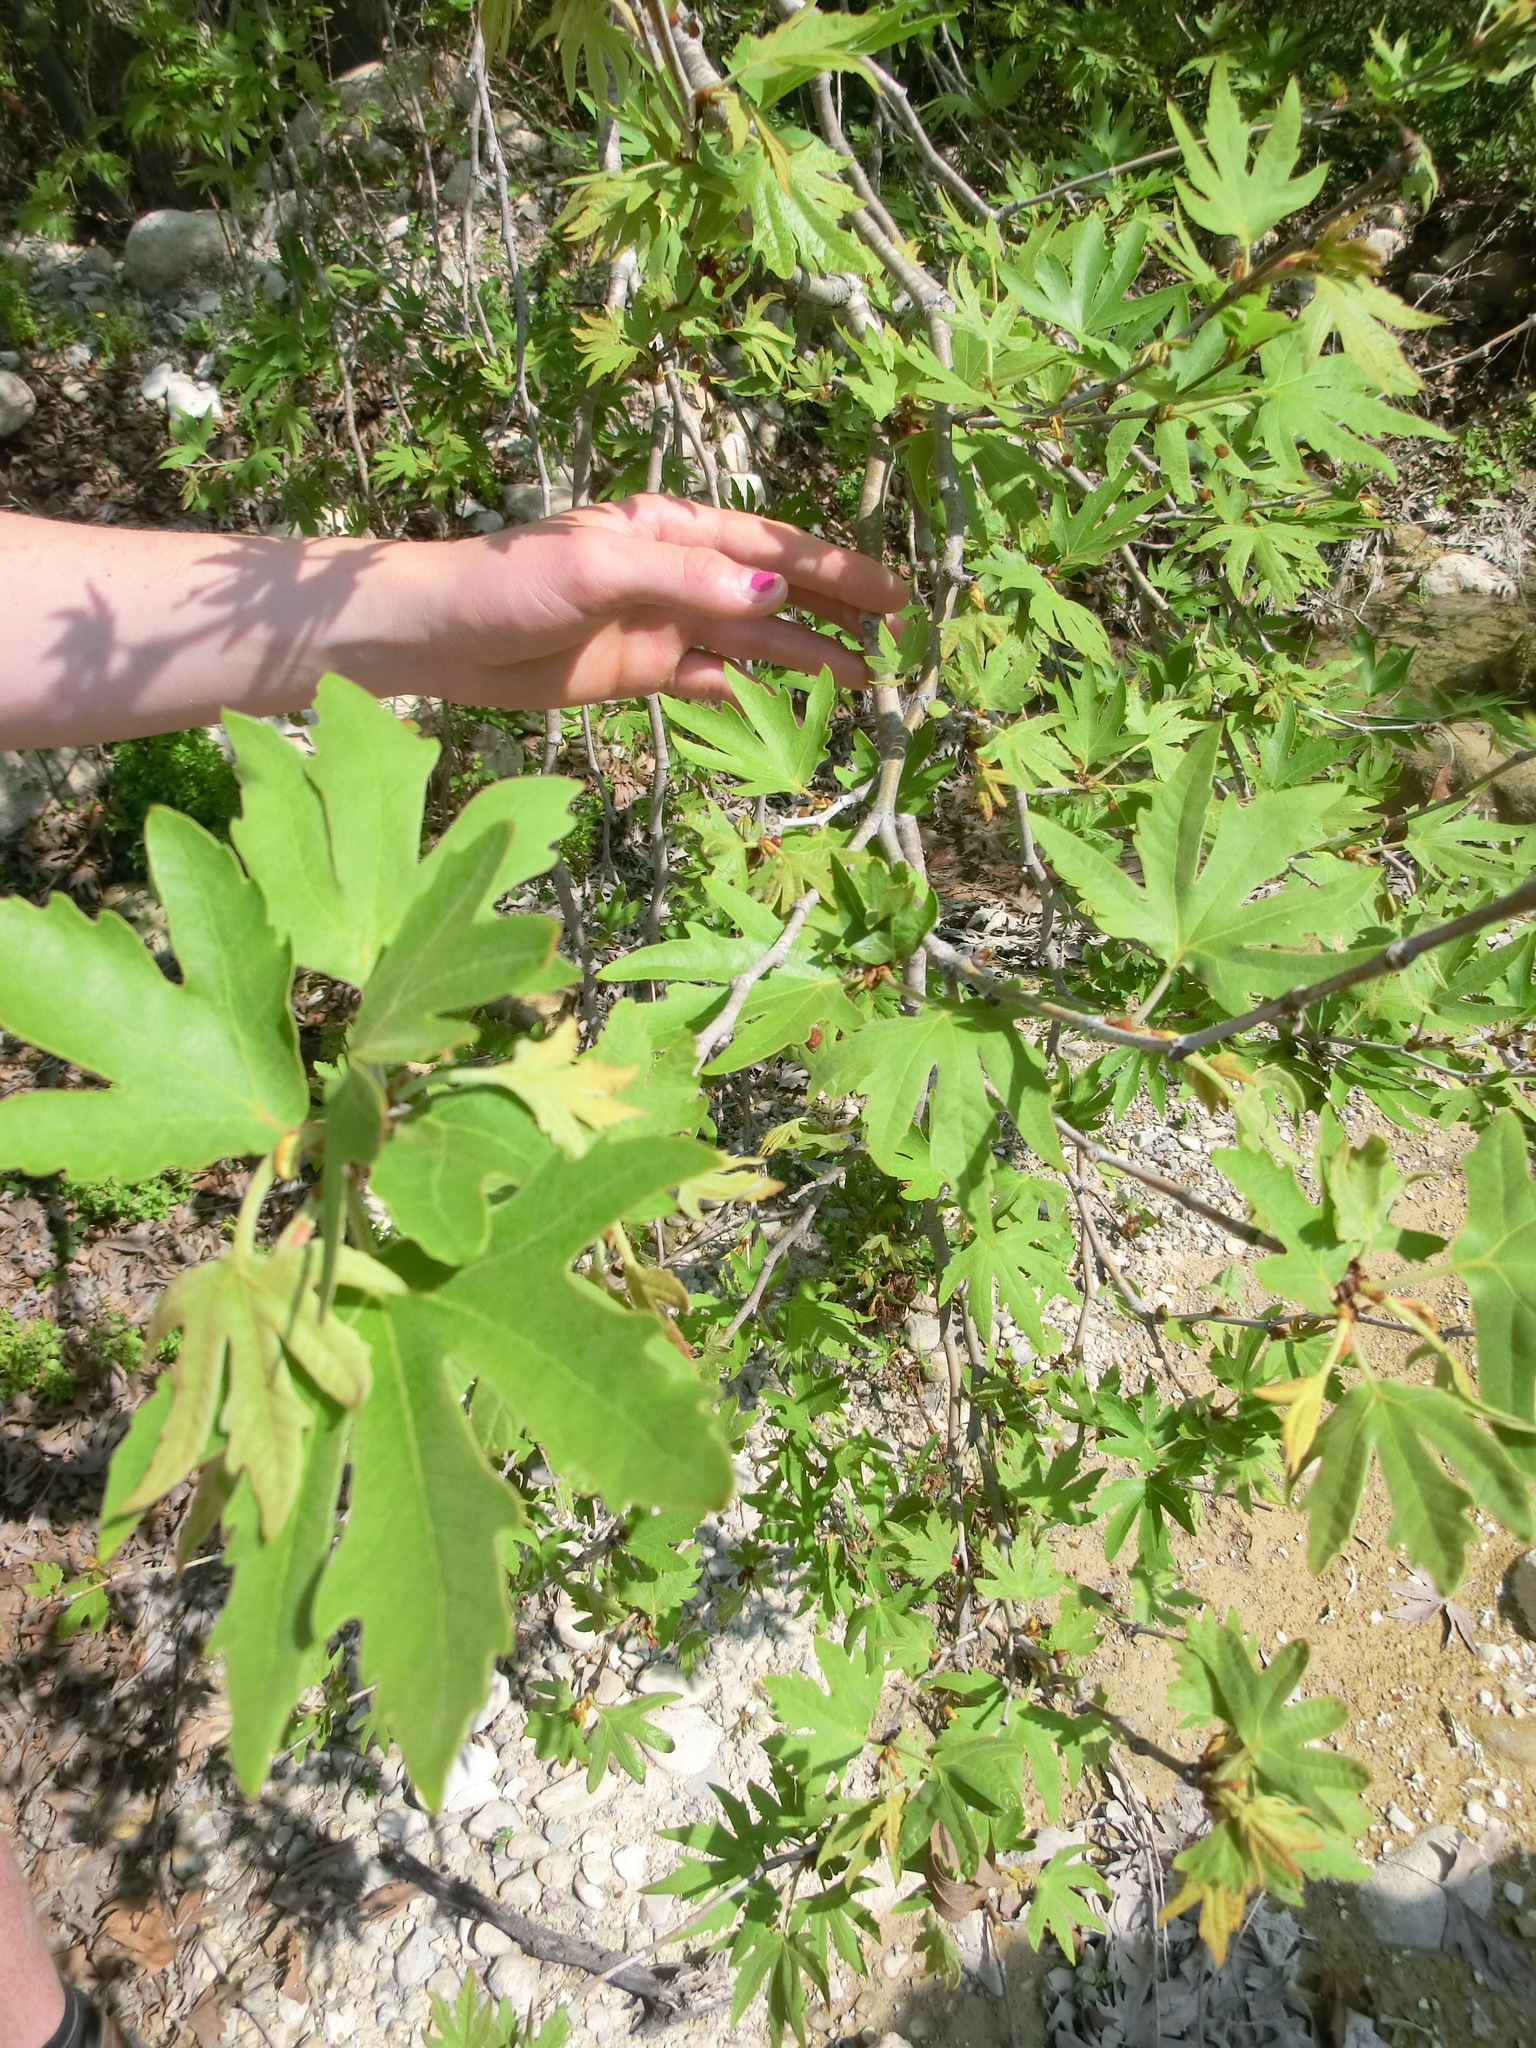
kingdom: Plantae
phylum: Tracheophyta
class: Magnoliopsida
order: Rosales
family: Moraceae
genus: Ficus
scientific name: Ficus carica
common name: Fig
